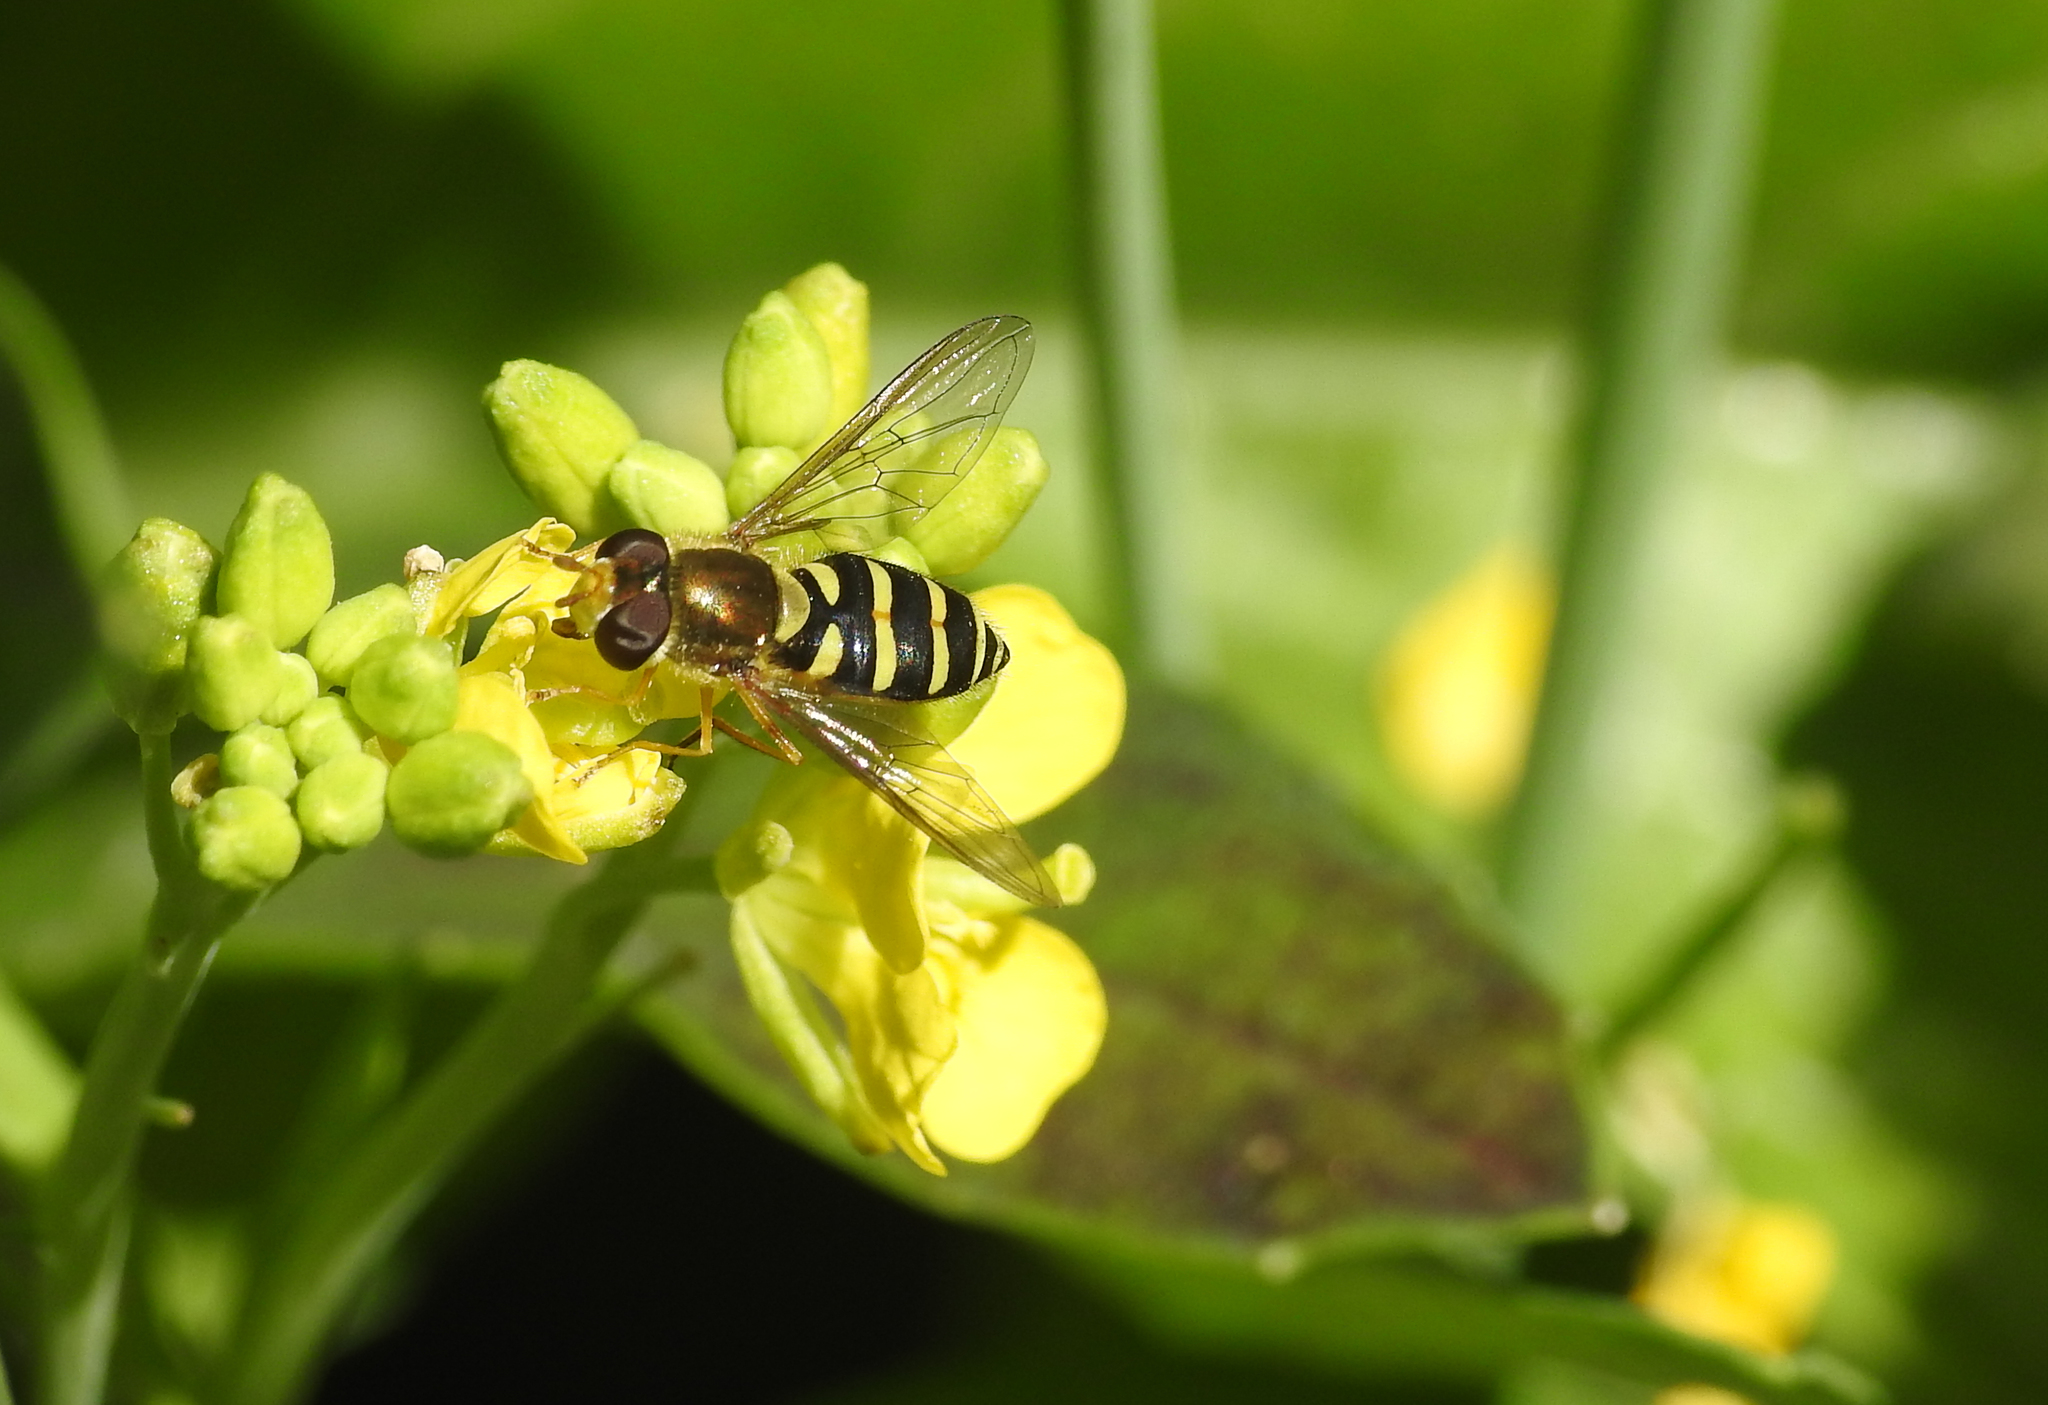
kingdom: Animalia
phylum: Arthropoda
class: Insecta
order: Diptera
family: Syrphidae
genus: Syrphus
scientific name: Syrphus opinator
